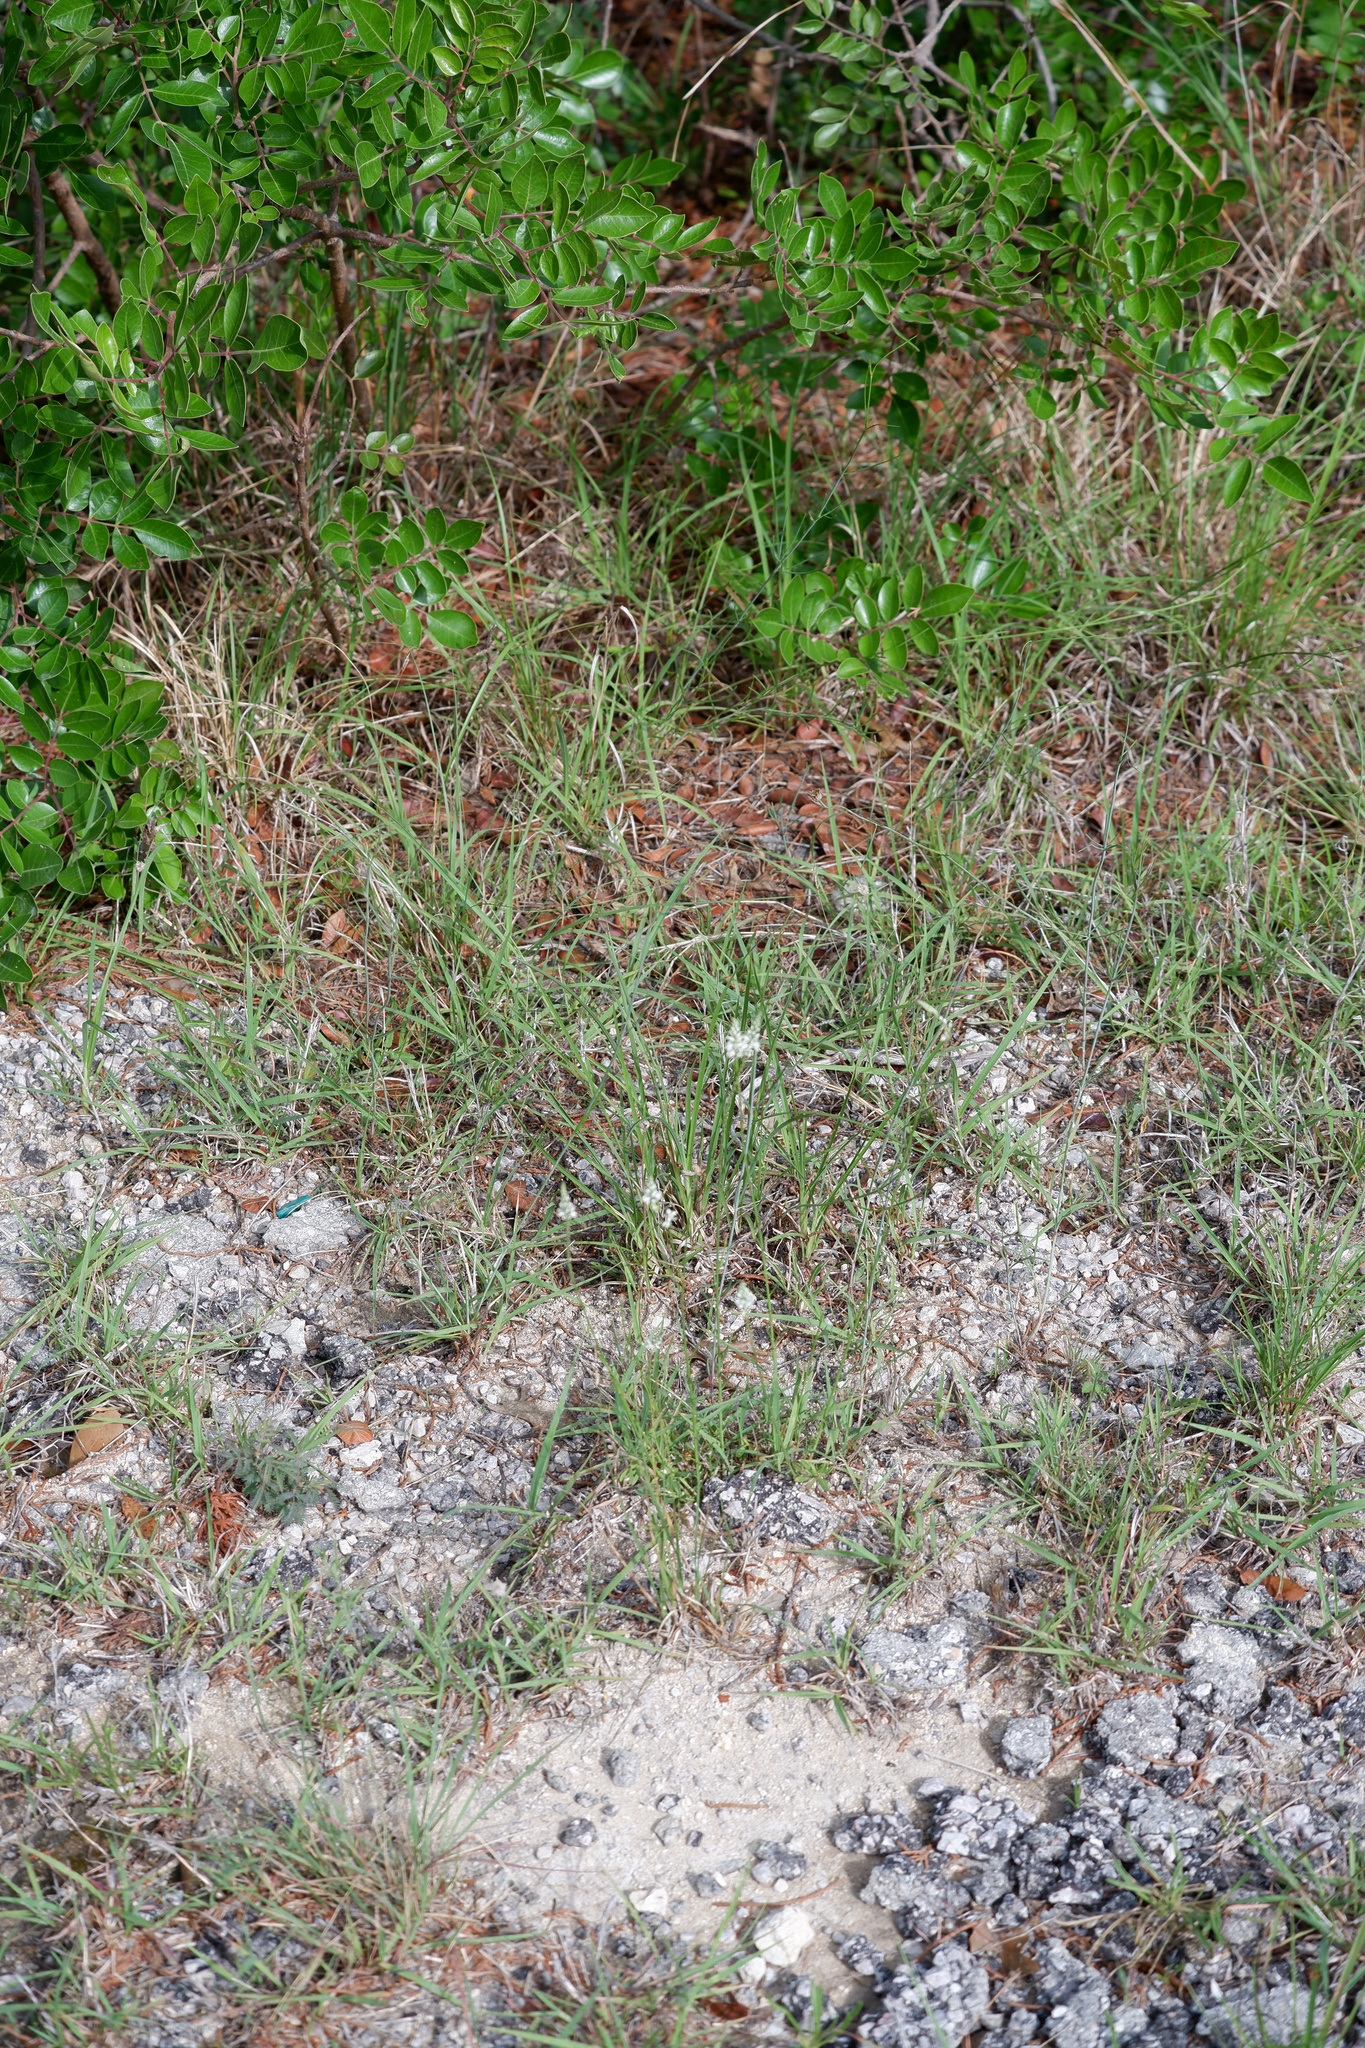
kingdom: Plantae
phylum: Tracheophyta
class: Magnoliopsida
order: Fabales
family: Polygalaceae
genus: Polygala
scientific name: Polygala alba
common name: White milkwort
